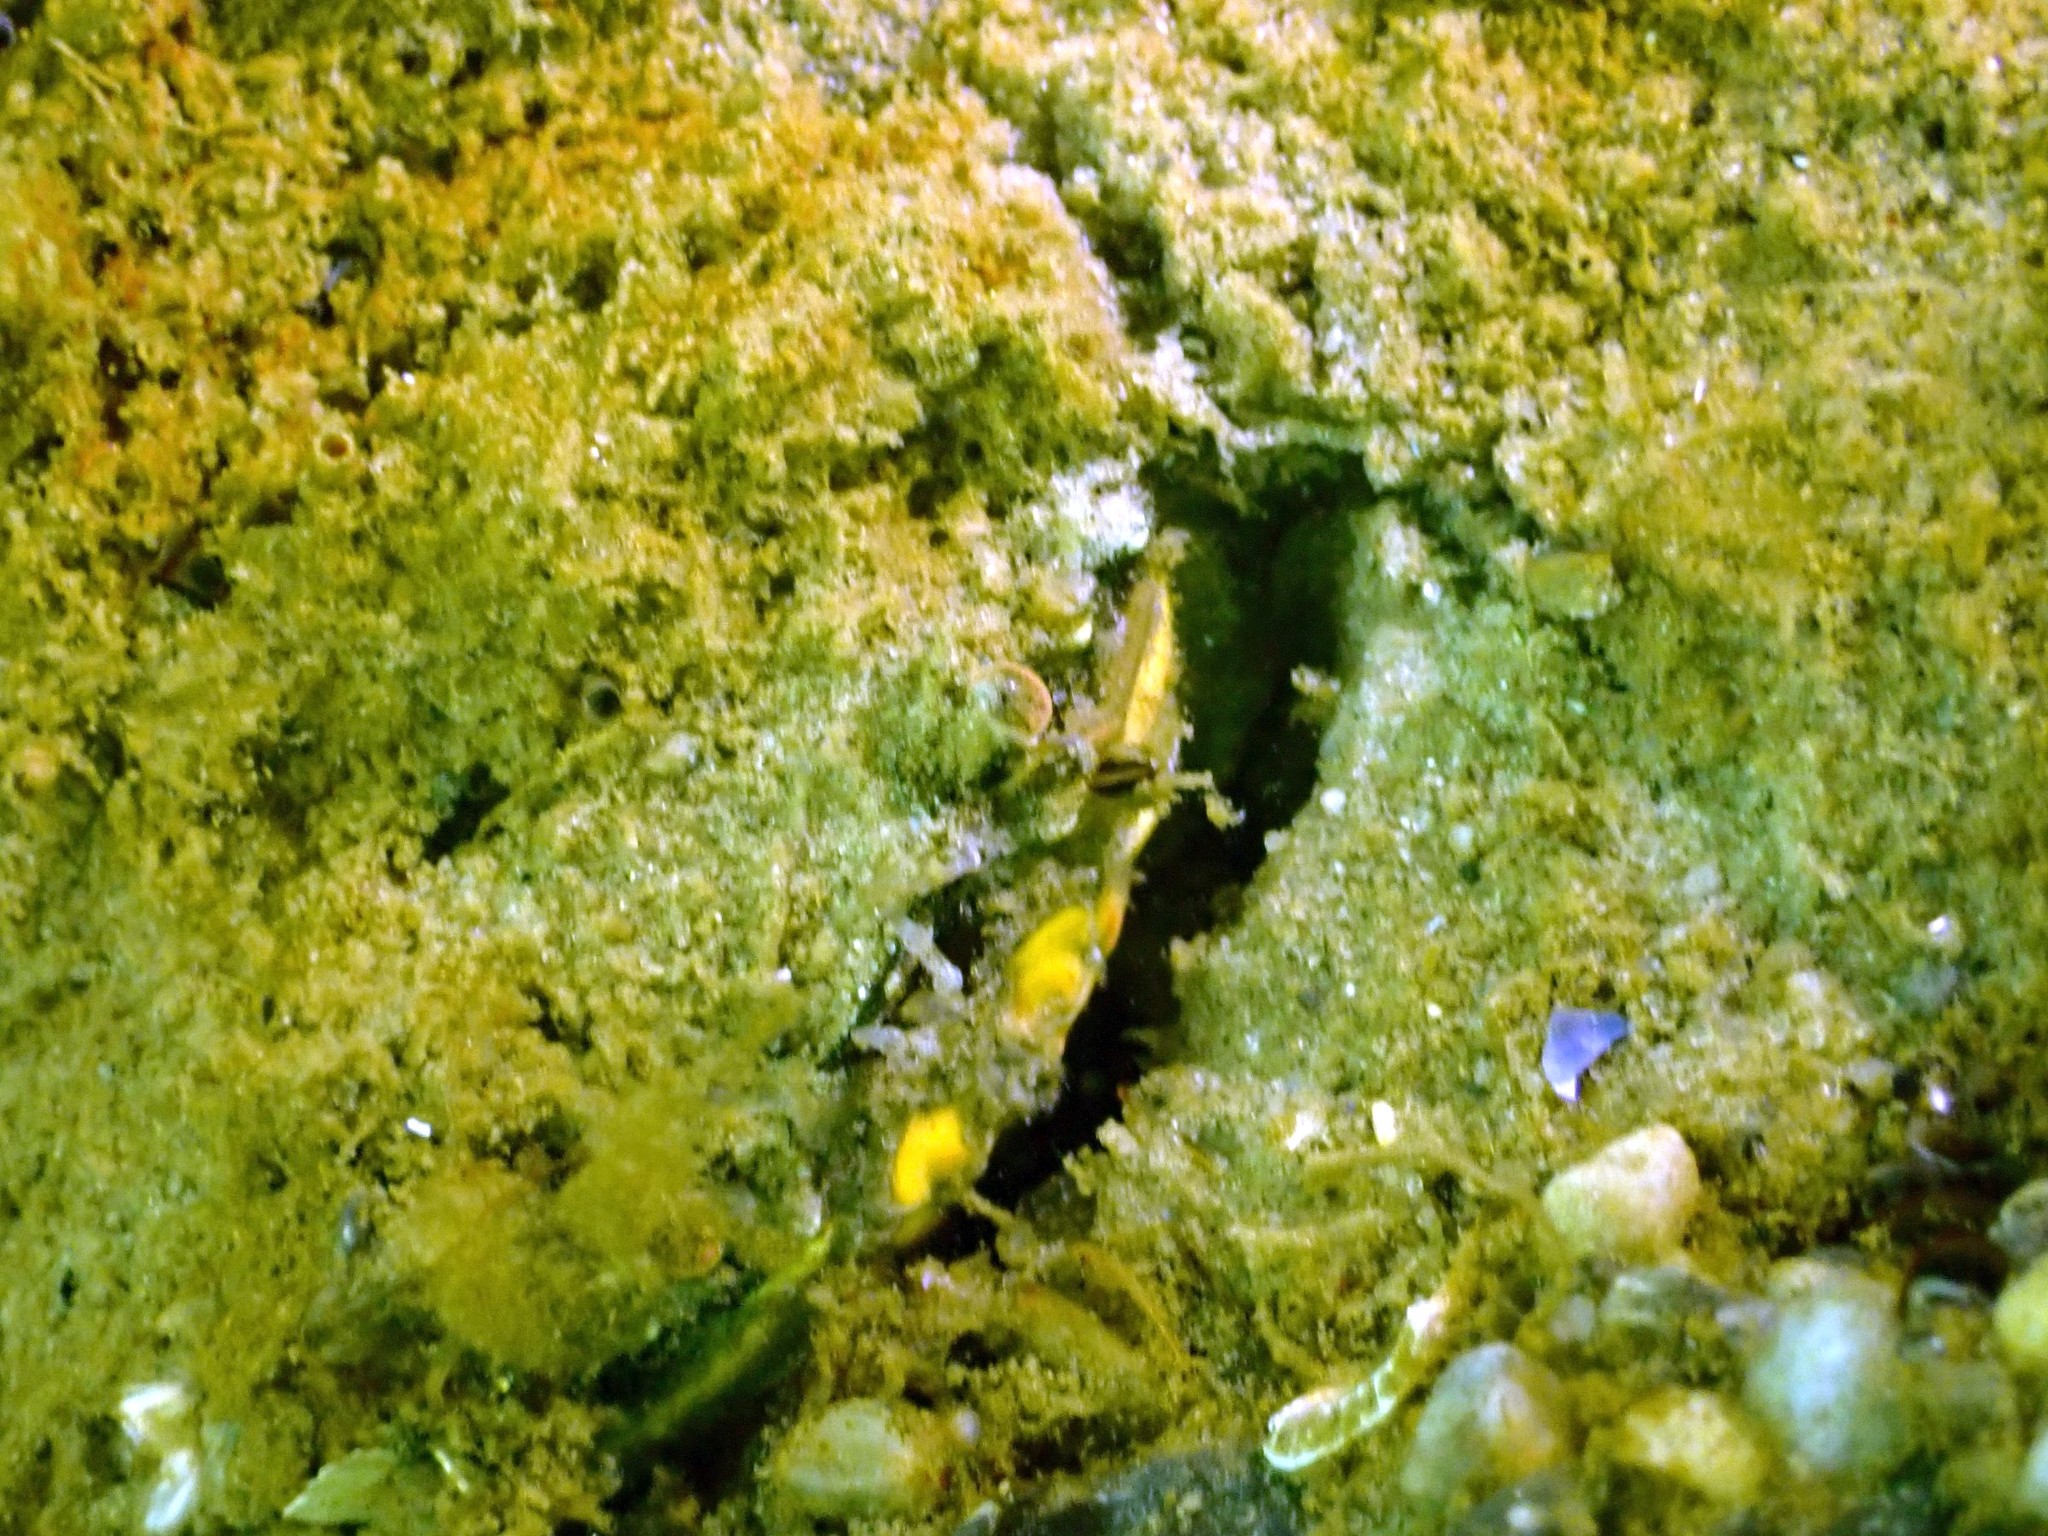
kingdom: Animalia
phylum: Arthropoda
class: Malacostraca
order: Decapoda
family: Carcinidae
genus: Carcinus
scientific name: Carcinus maenas
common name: European green crab
